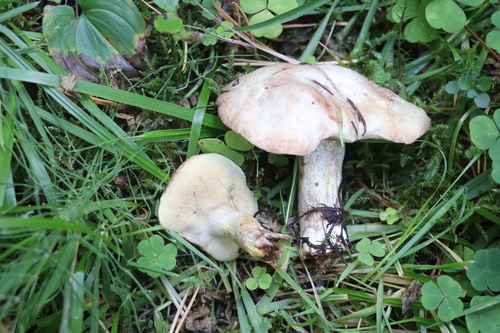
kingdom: Fungi
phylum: Basidiomycota
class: Agaricomycetes
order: Boletales
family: Suillaceae
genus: Suillus
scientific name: Suillus placidus
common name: Slippery white bolete
